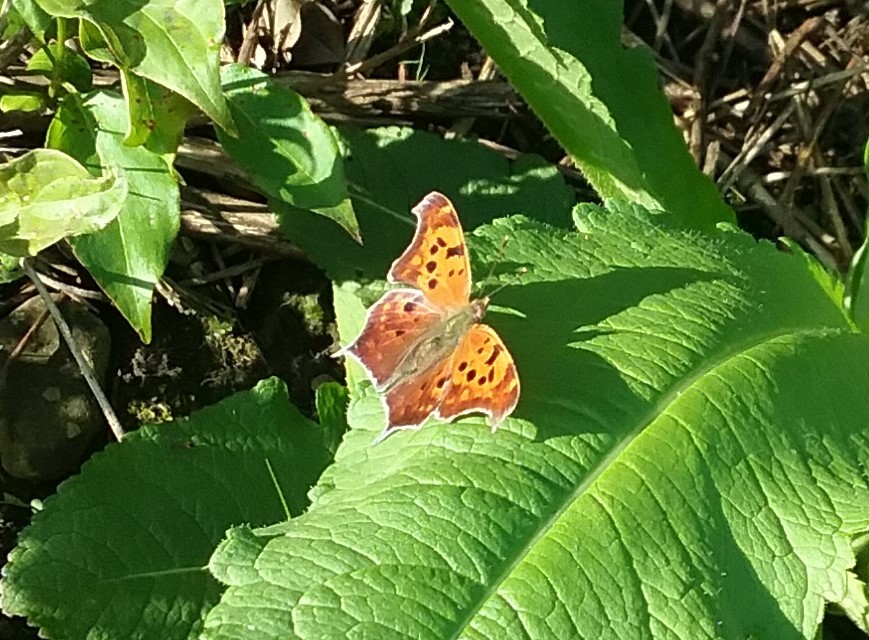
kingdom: Animalia
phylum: Arthropoda
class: Insecta
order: Lepidoptera
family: Nymphalidae
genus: Polygonia
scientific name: Polygonia interrogationis
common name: Question mark
